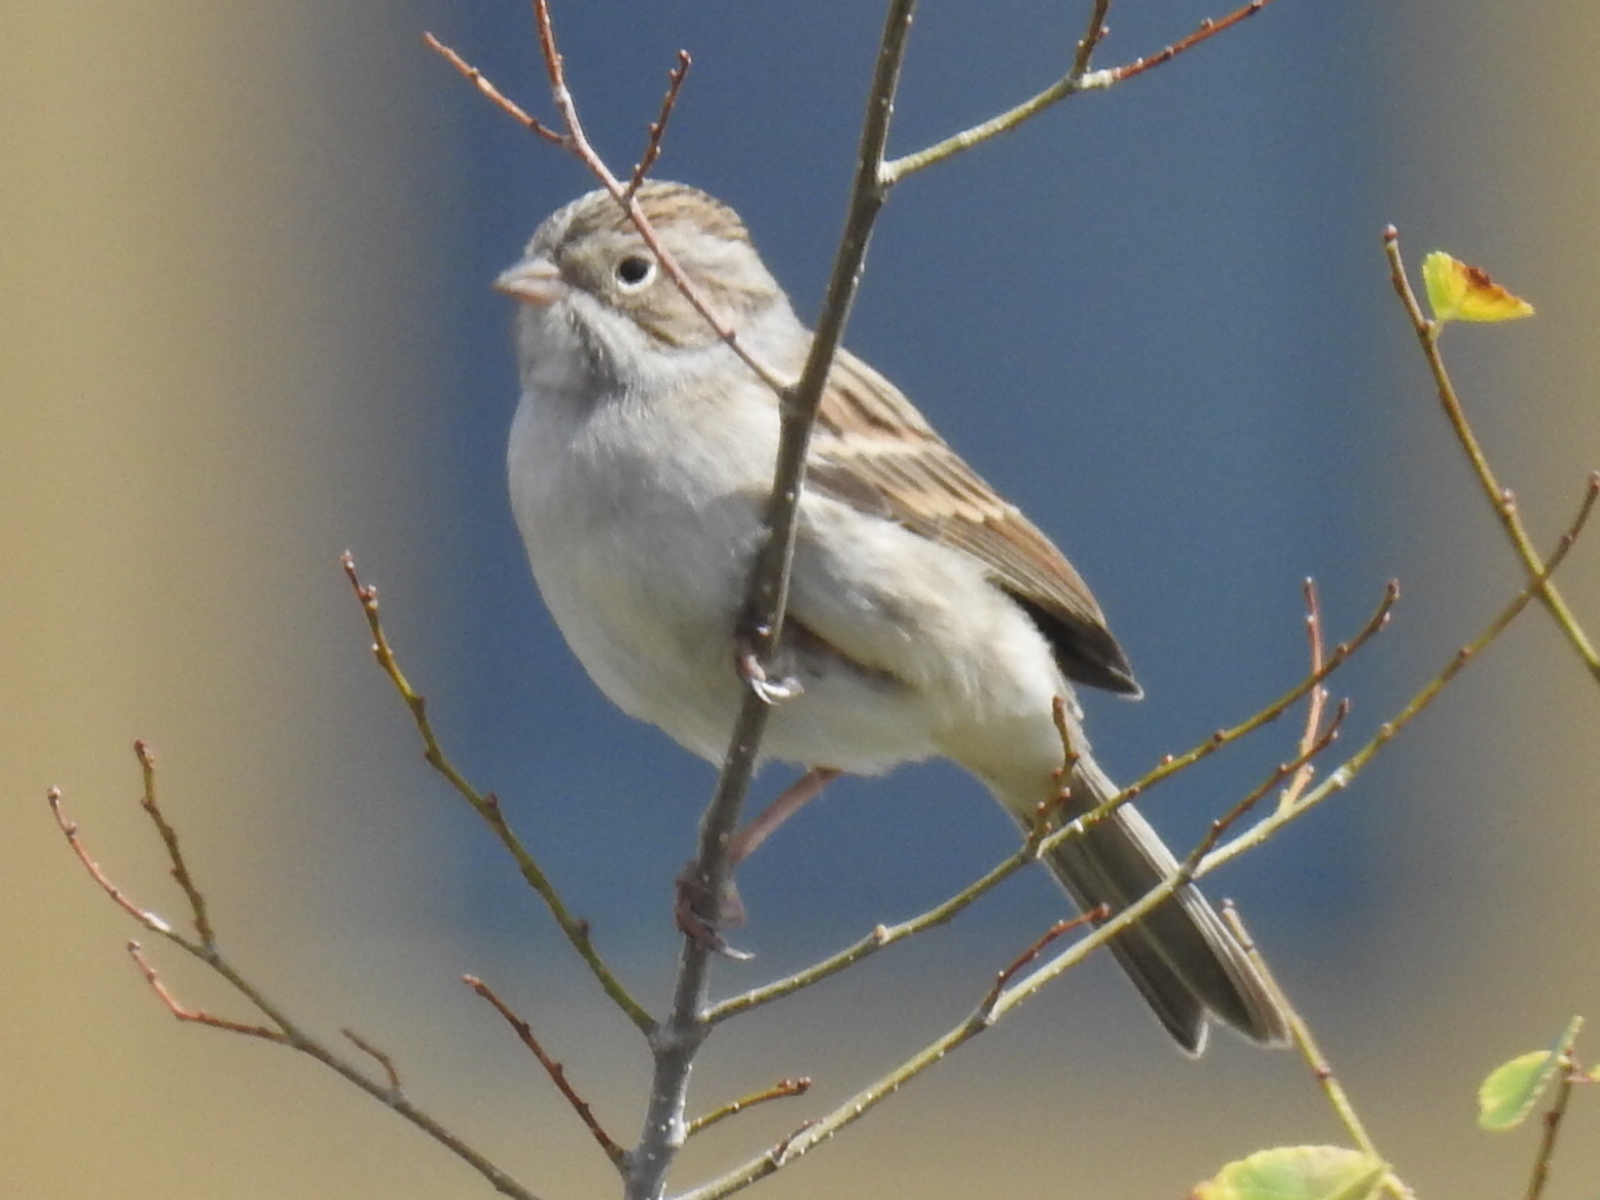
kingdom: Animalia
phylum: Chordata
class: Aves
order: Passeriformes
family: Passerellidae
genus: Spizella
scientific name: Spizella breweri
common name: Brewer's sparrow
